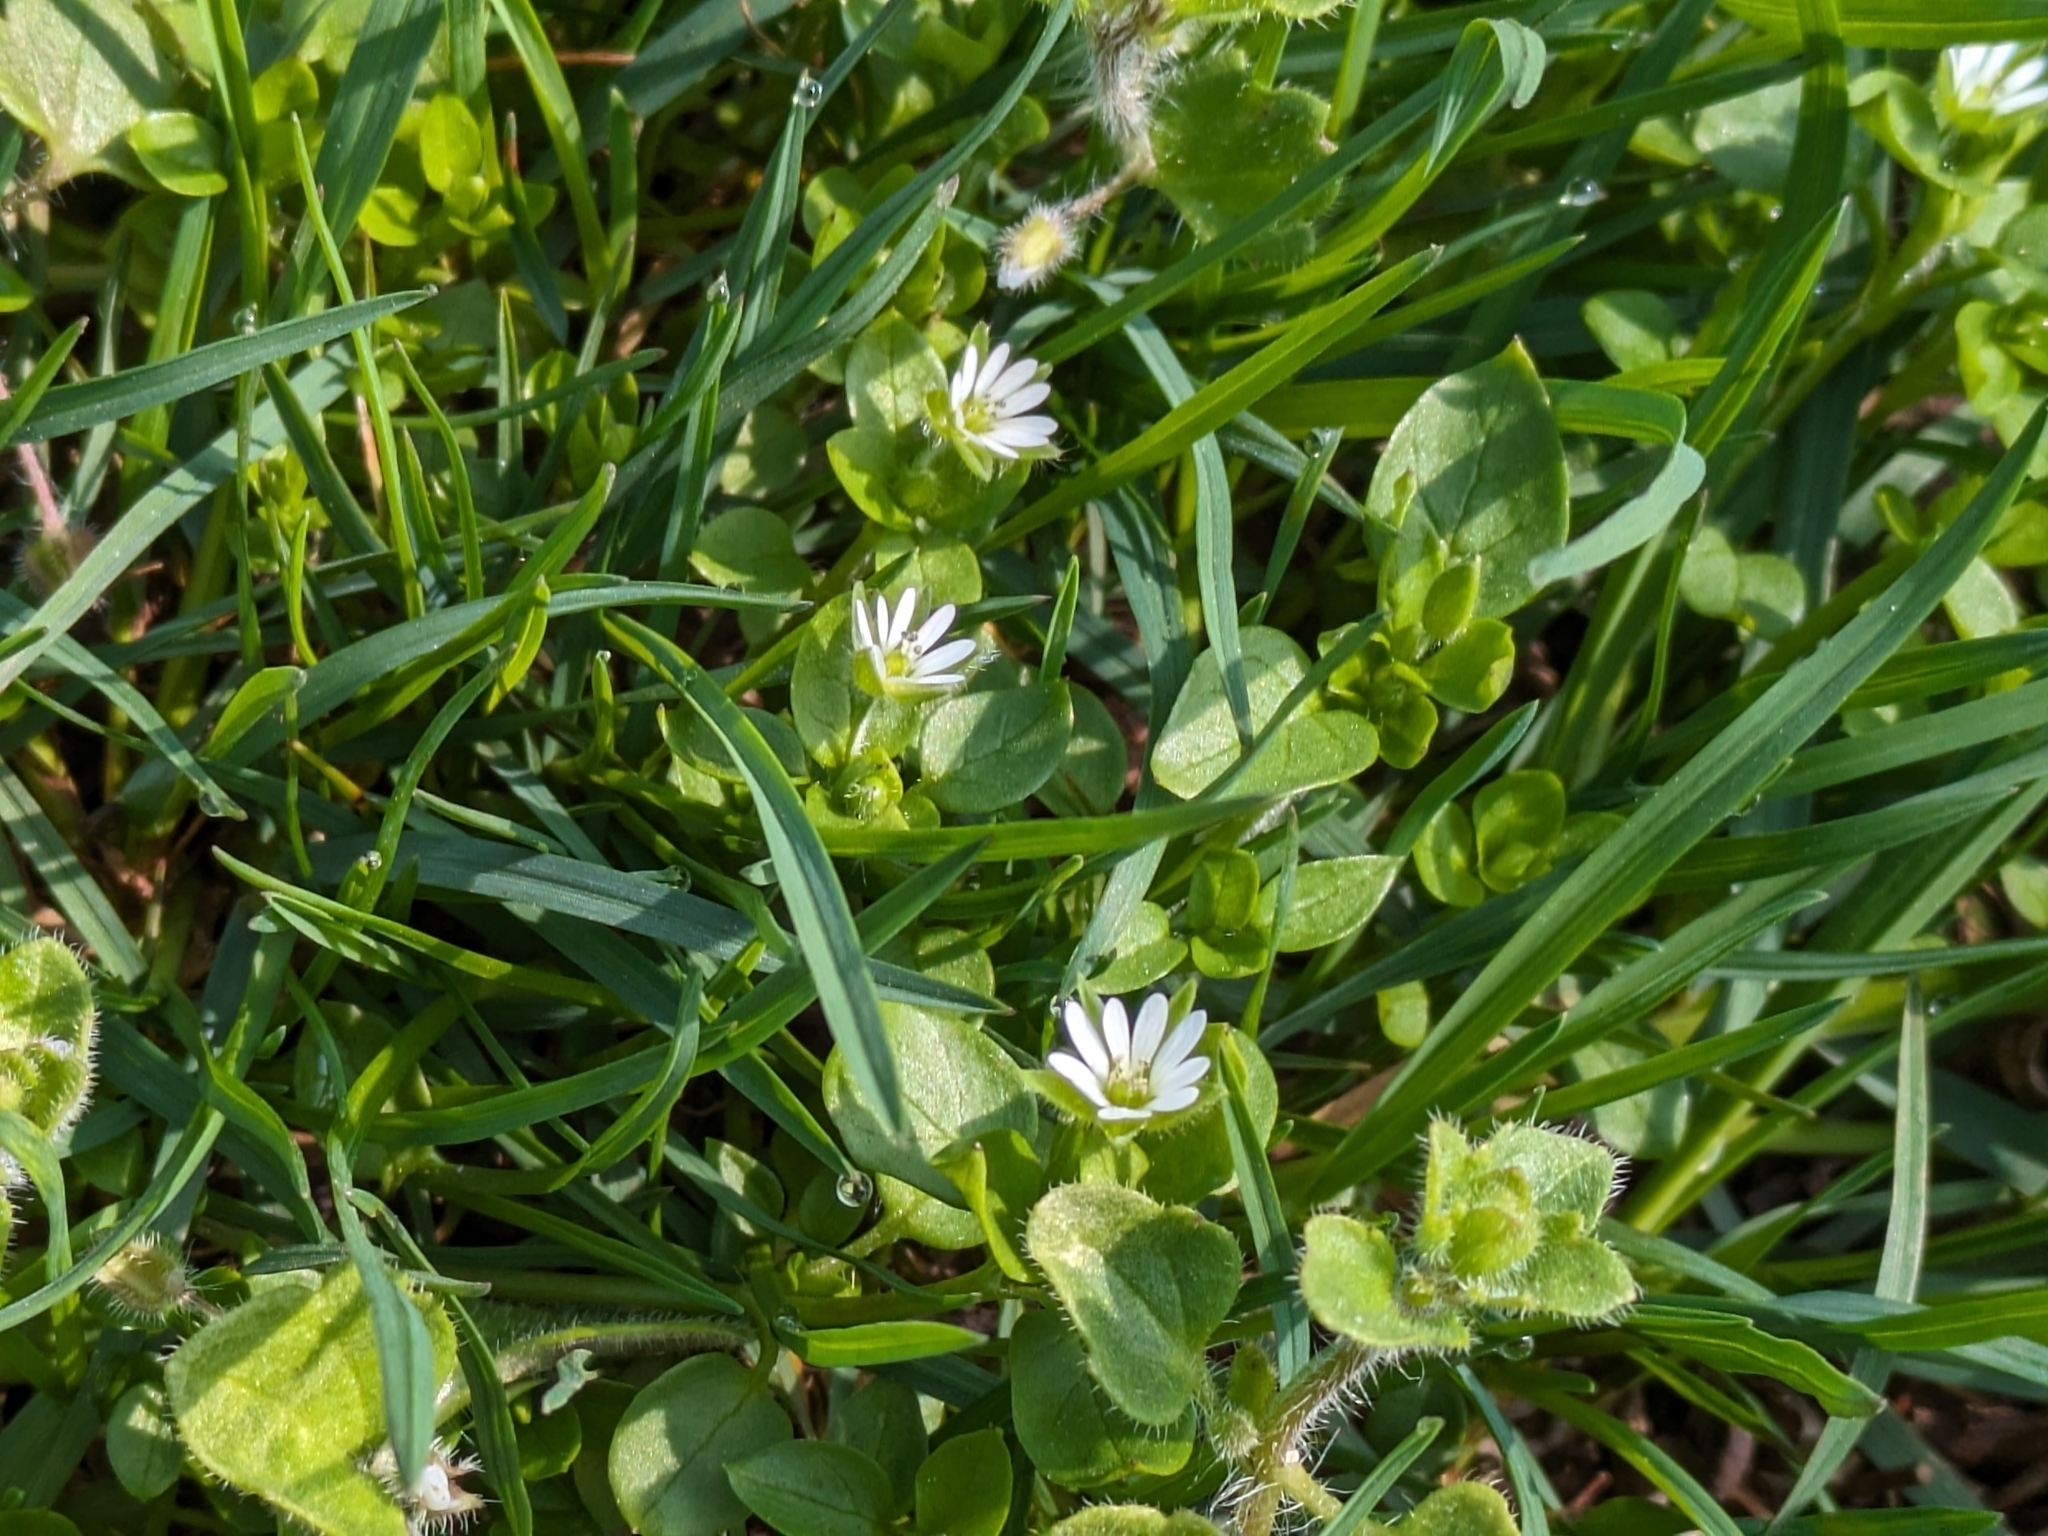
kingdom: Plantae
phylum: Tracheophyta
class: Magnoliopsida
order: Caryophyllales
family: Caryophyllaceae
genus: Stellaria
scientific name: Stellaria media
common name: Common chickweed
